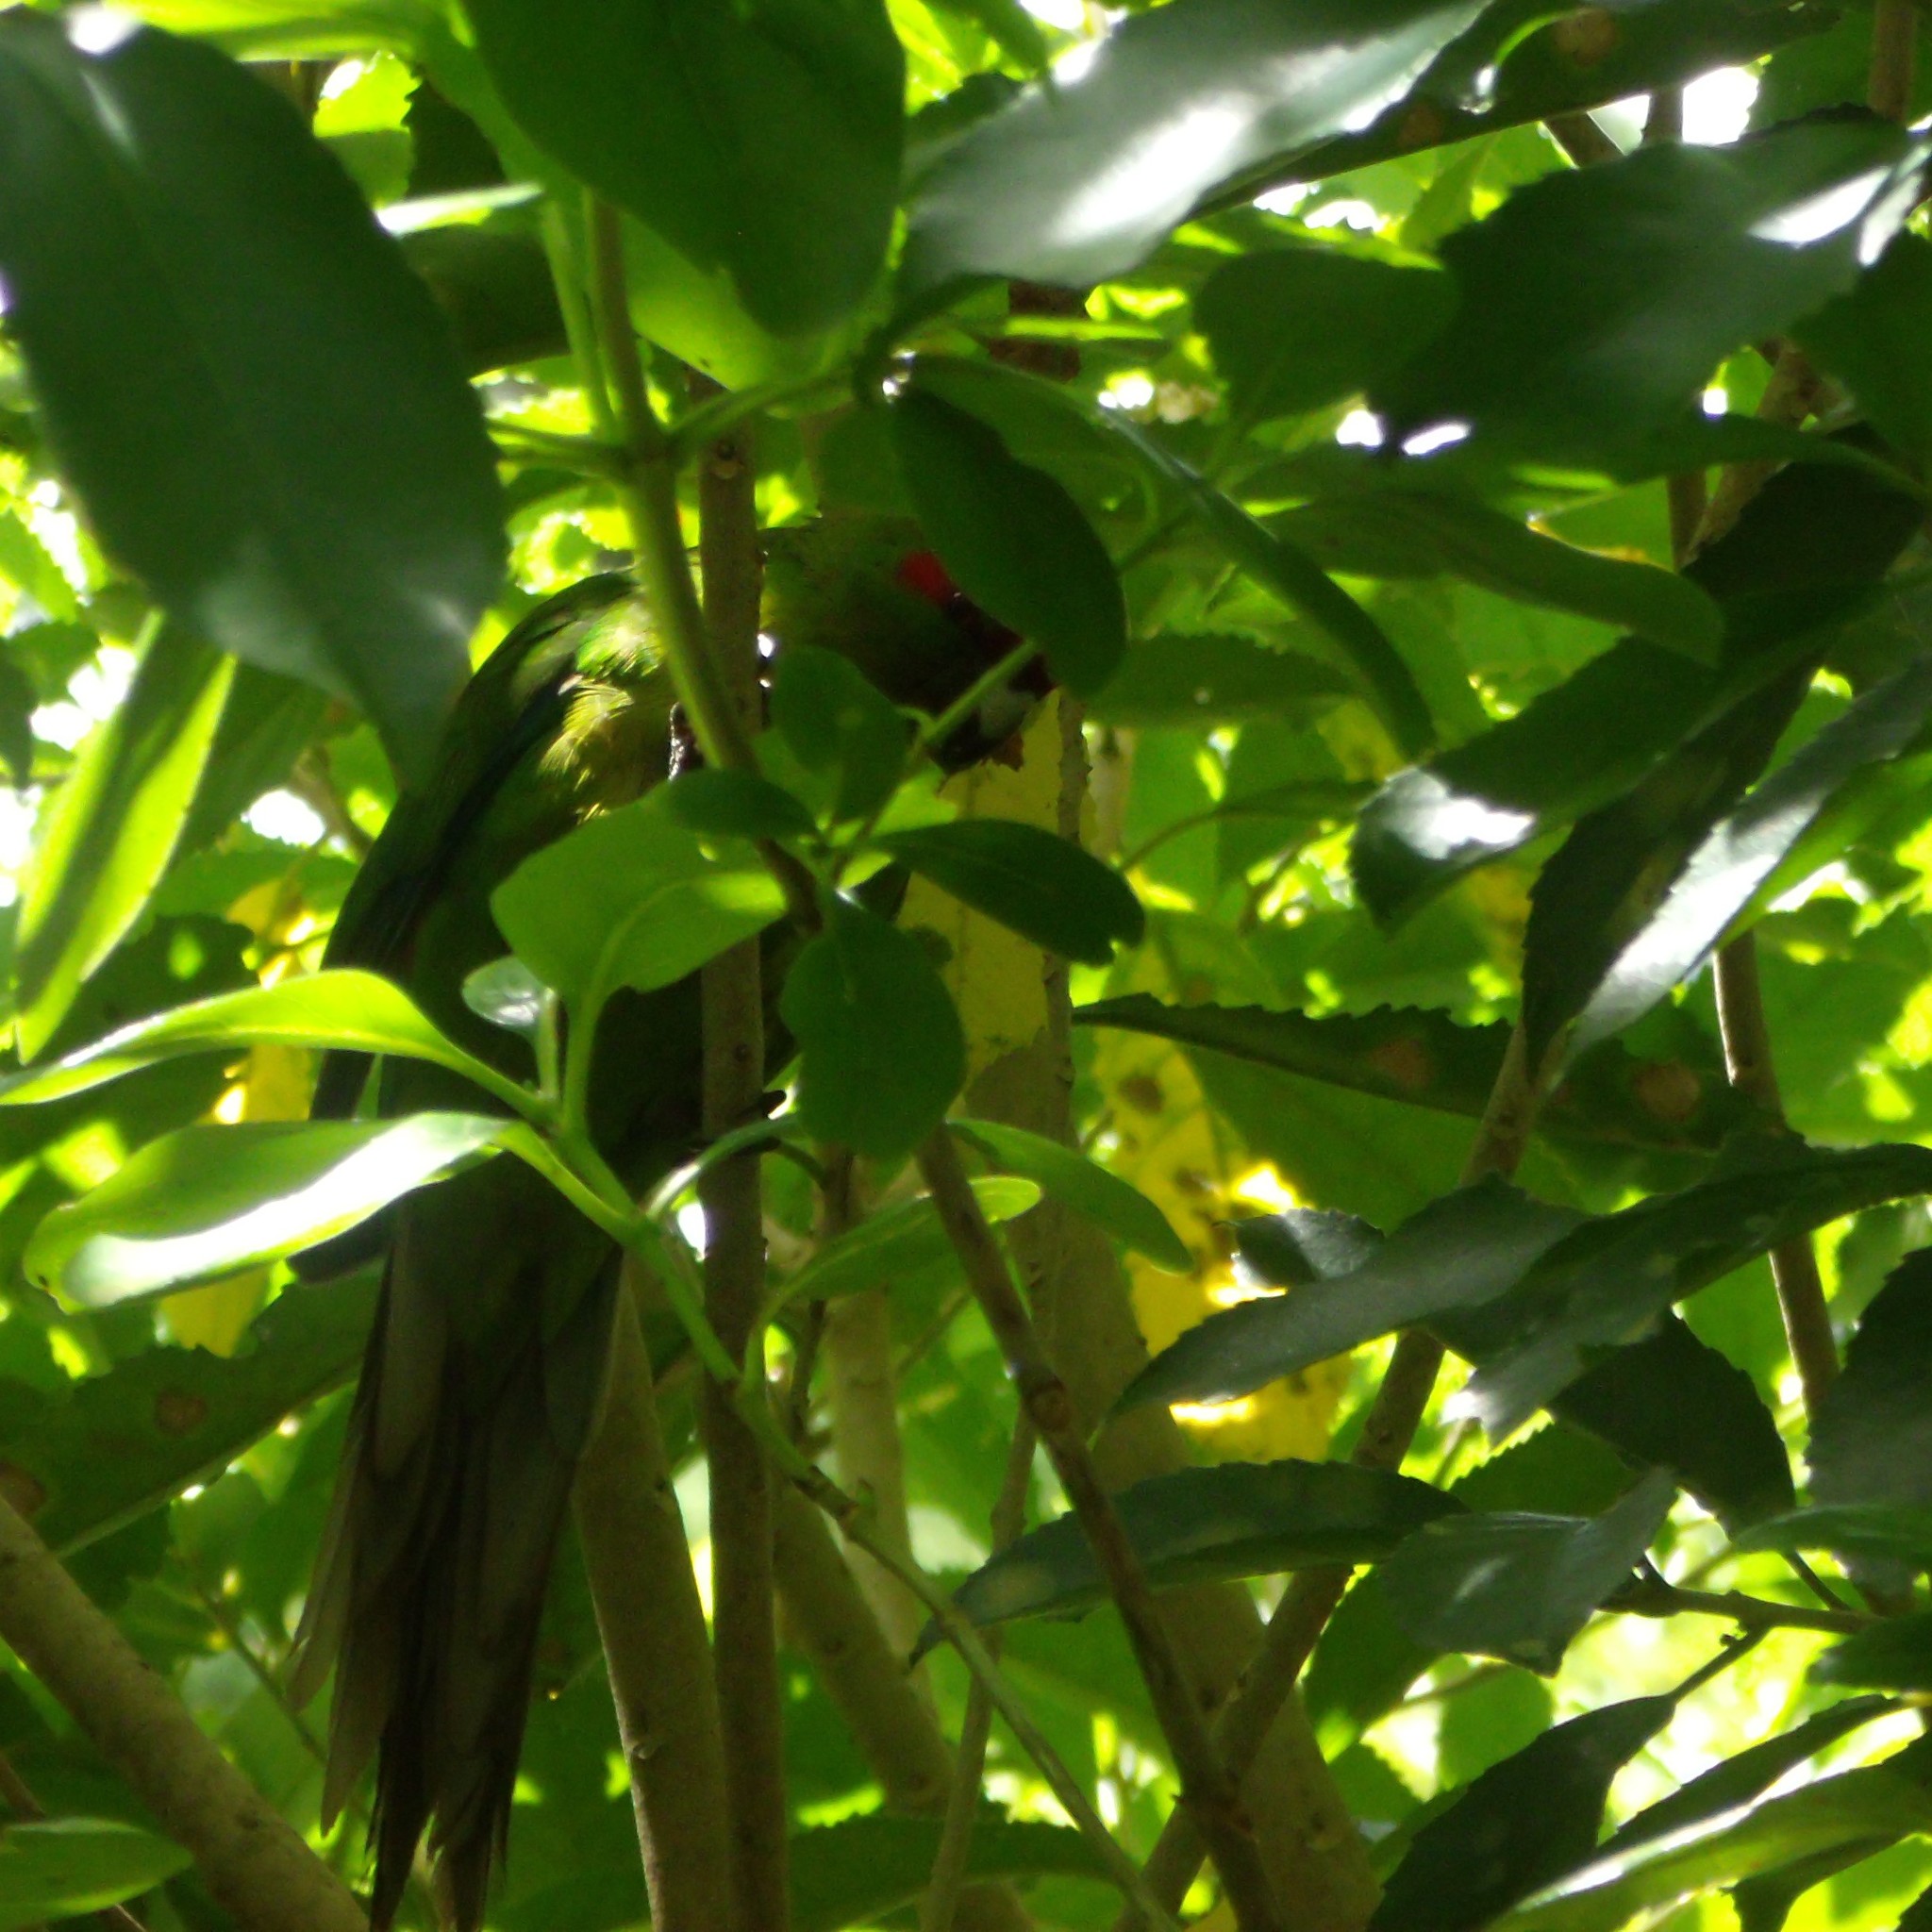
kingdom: Animalia
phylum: Chordata
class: Aves
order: Psittaciformes
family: Psittacidae
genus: Cyanoramphus
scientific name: Cyanoramphus novaezelandiae
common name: Red-fronted parakeet
